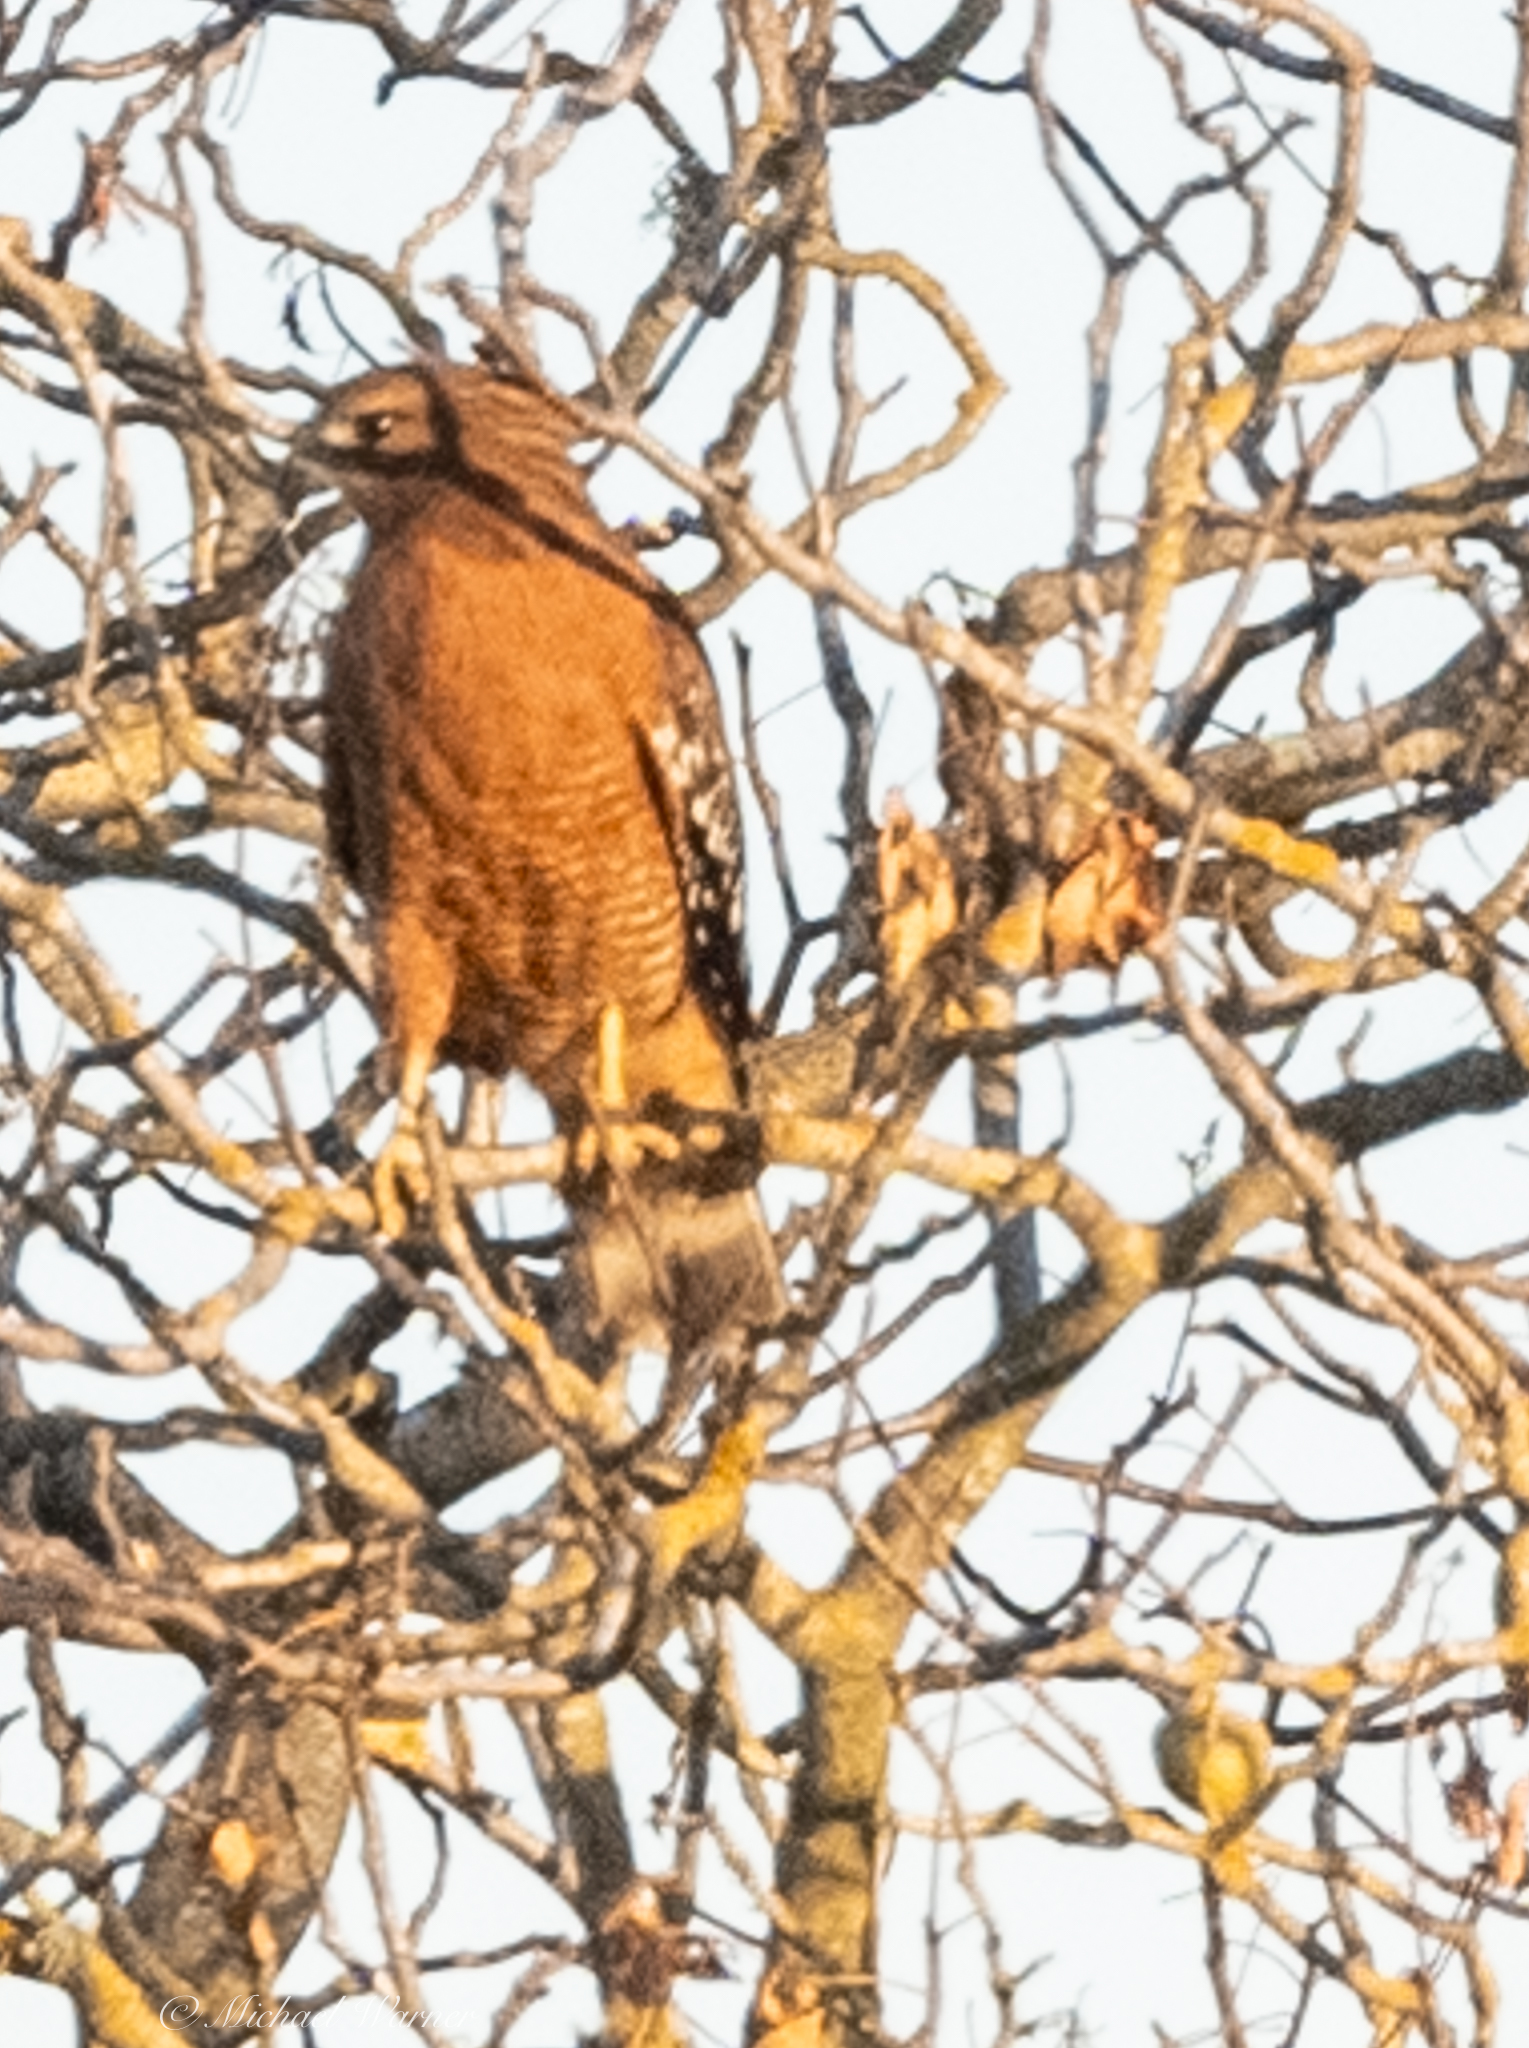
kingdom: Animalia
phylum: Chordata
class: Aves
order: Accipitriformes
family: Accipitridae
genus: Buteo
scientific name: Buteo lineatus
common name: Red-shouldered hawk
